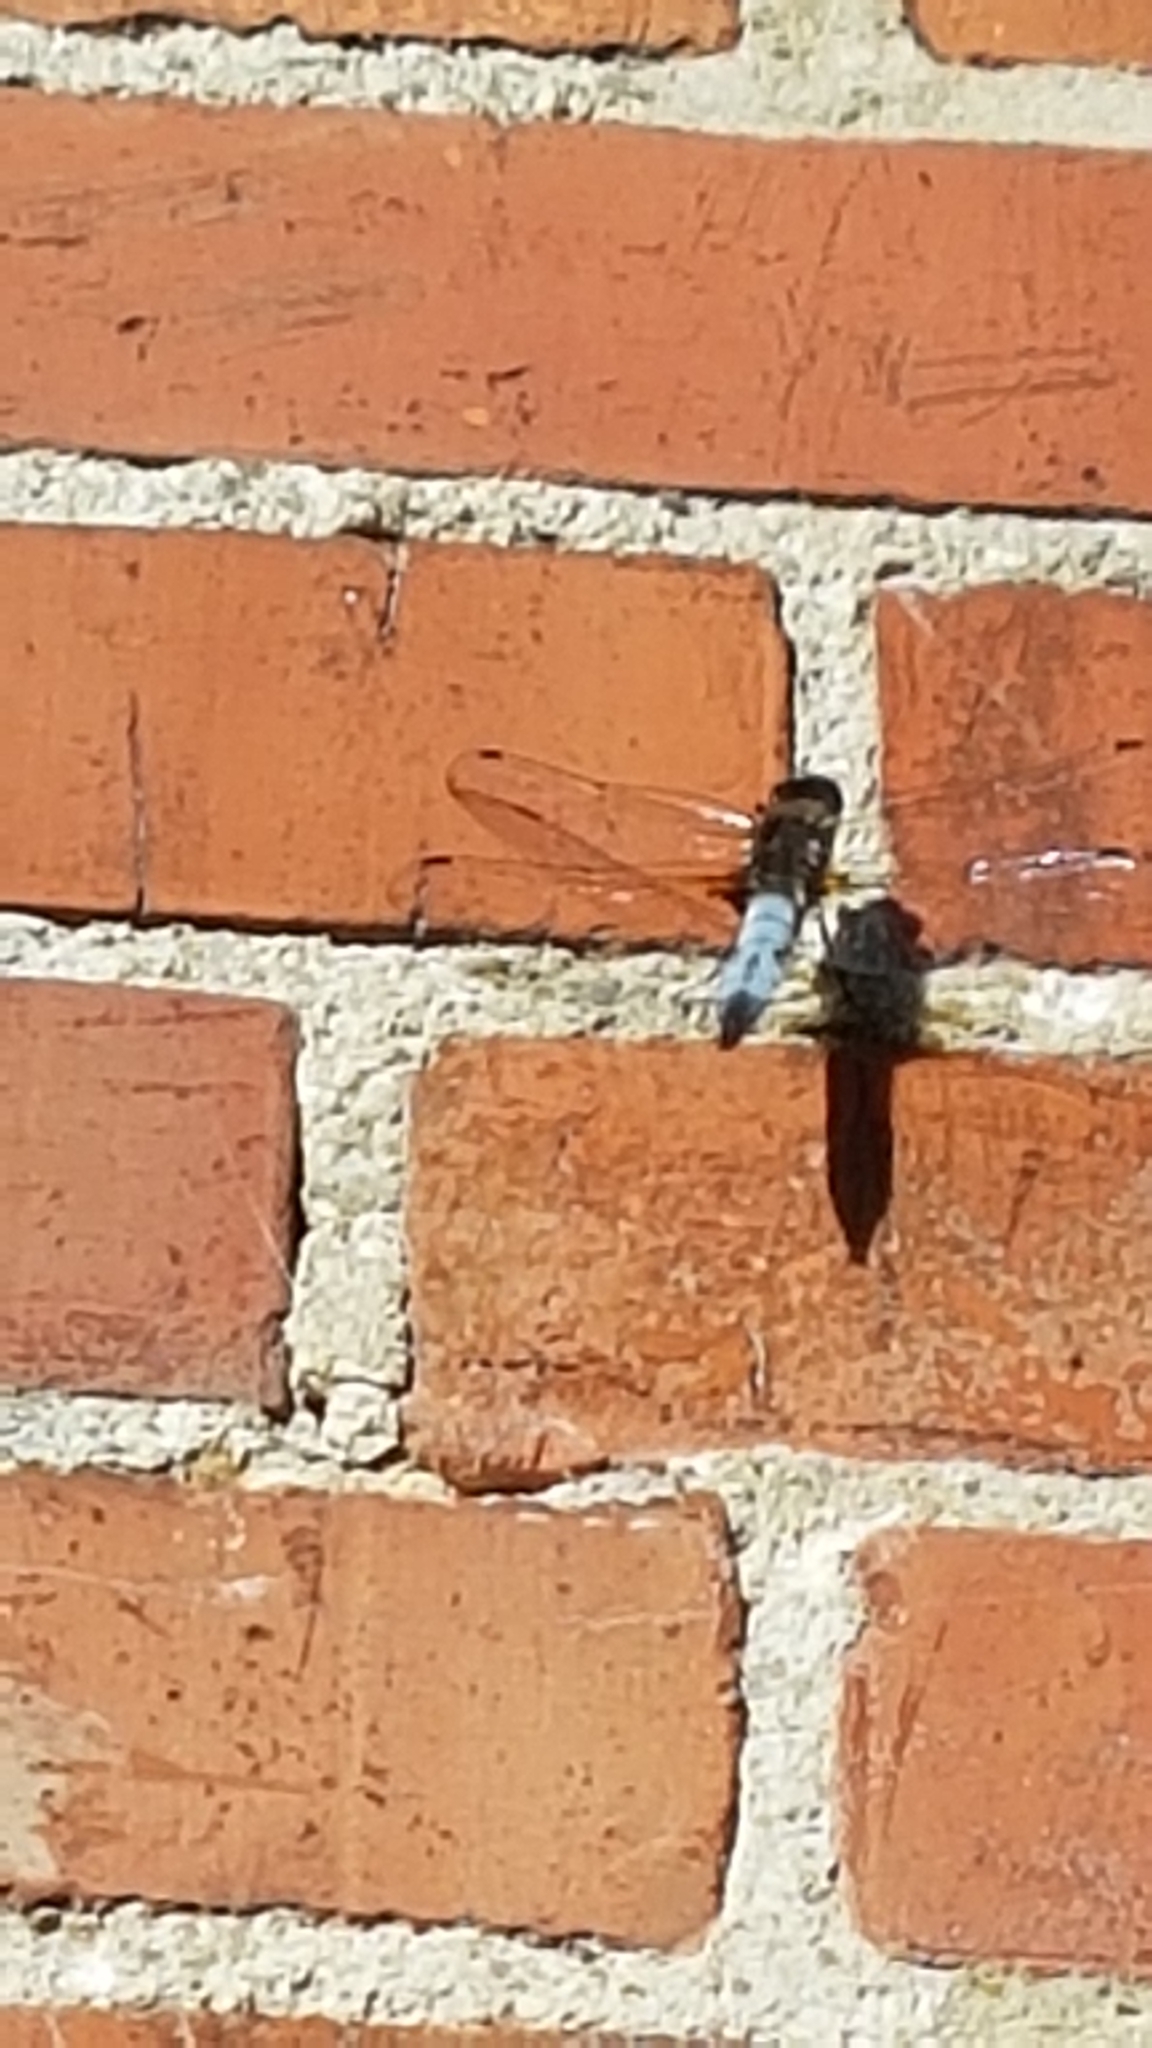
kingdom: Animalia
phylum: Arthropoda
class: Insecta
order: Odonata
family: Libellulidae
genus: Libellula
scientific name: Libellula fulva
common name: Blue chaser
